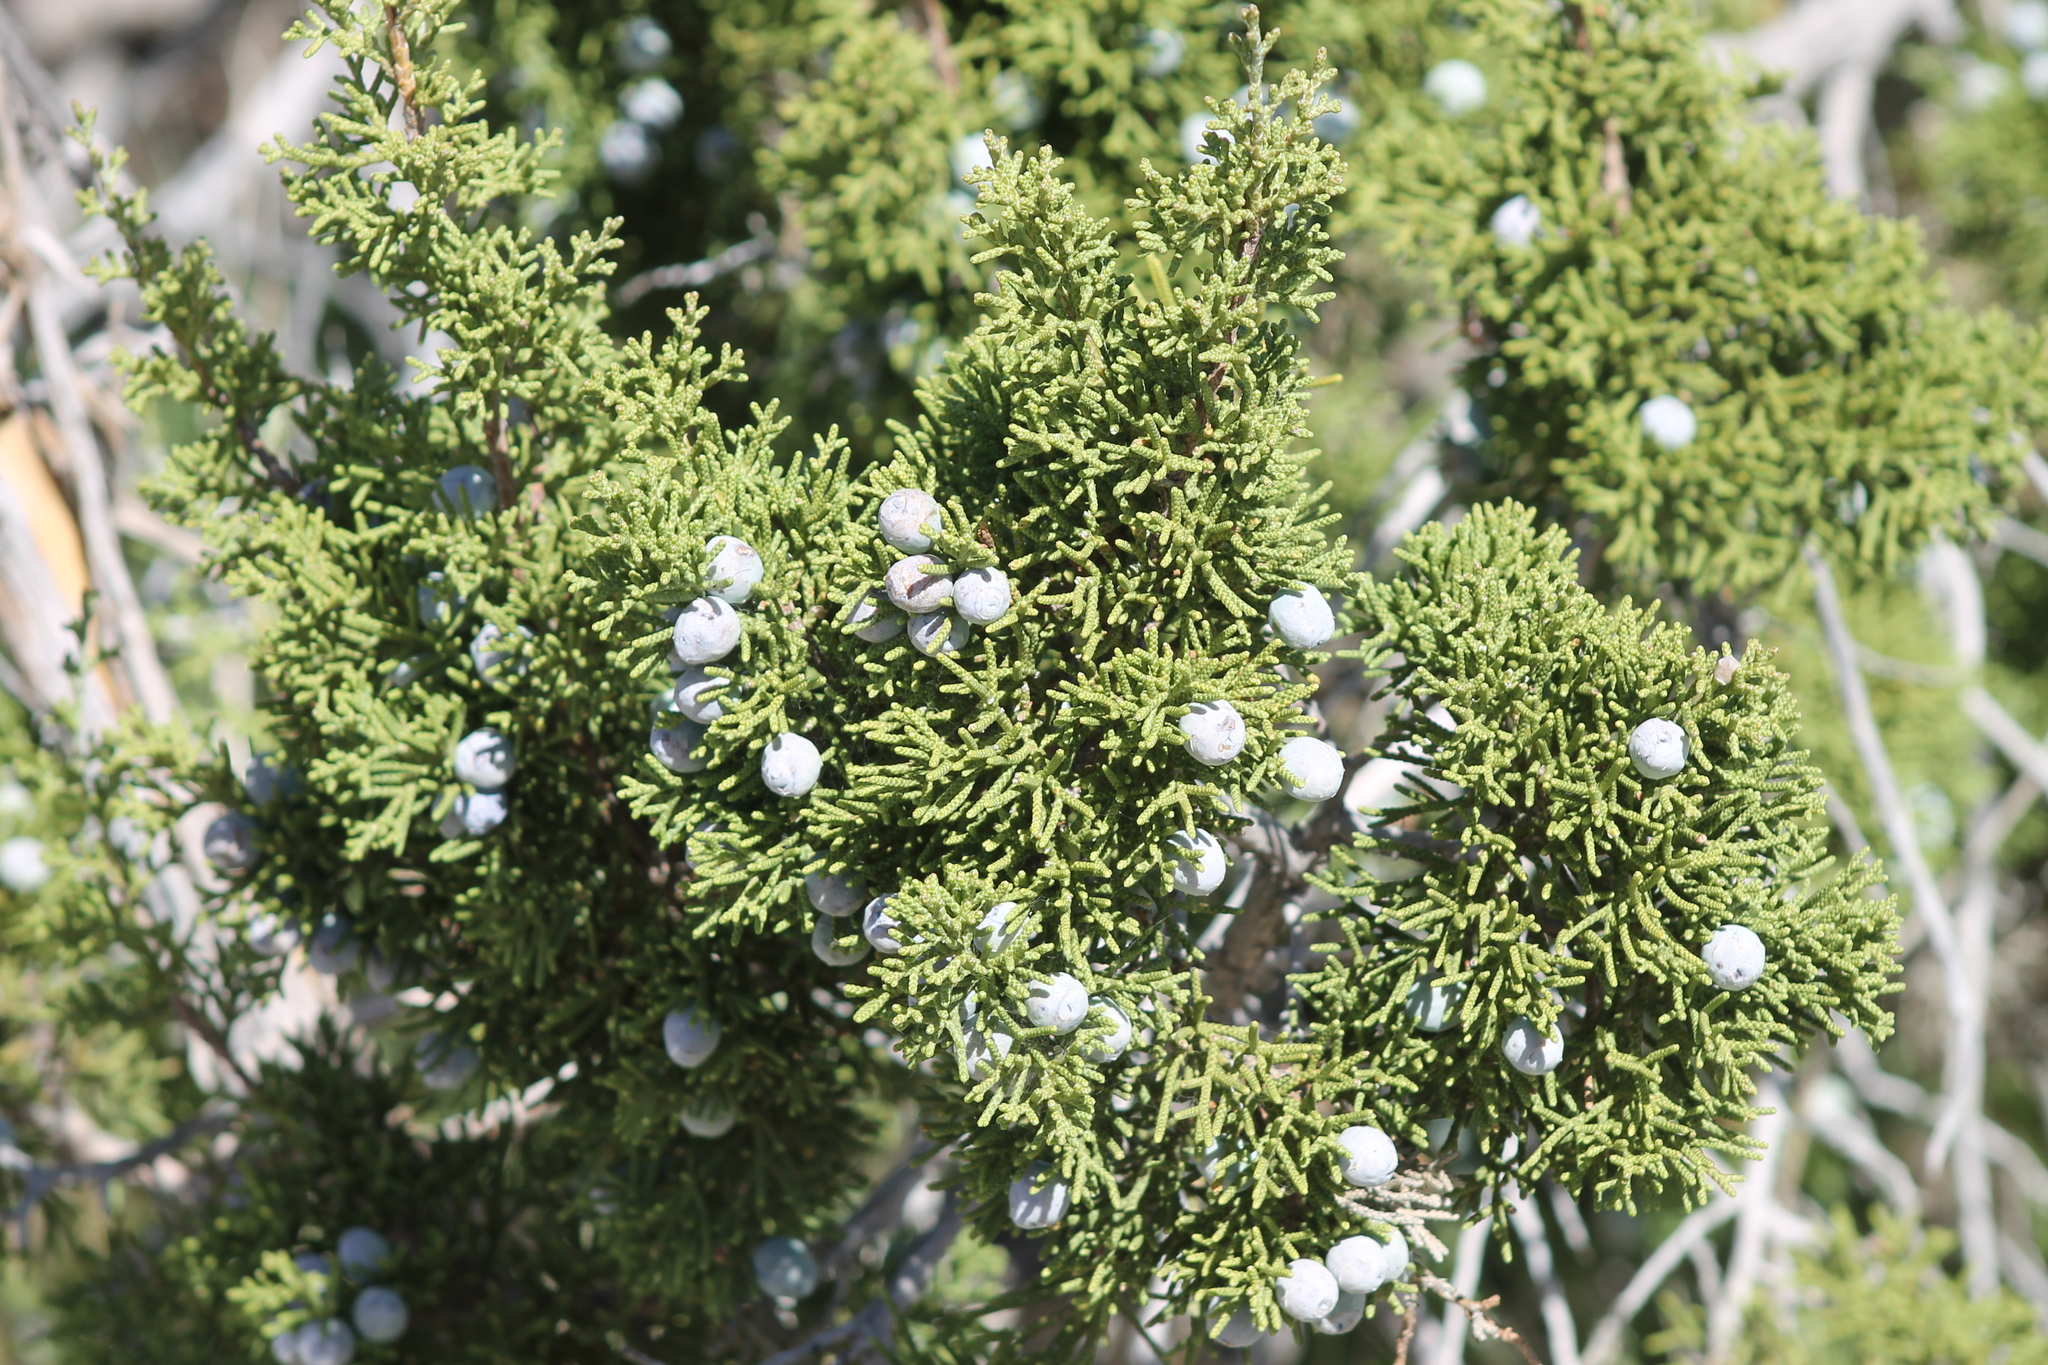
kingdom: Plantae
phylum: Tracheophyta
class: Pinopsida
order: Pinales
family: Cupressaceae
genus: Juniperus
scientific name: Juniperus californica
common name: California juniper
